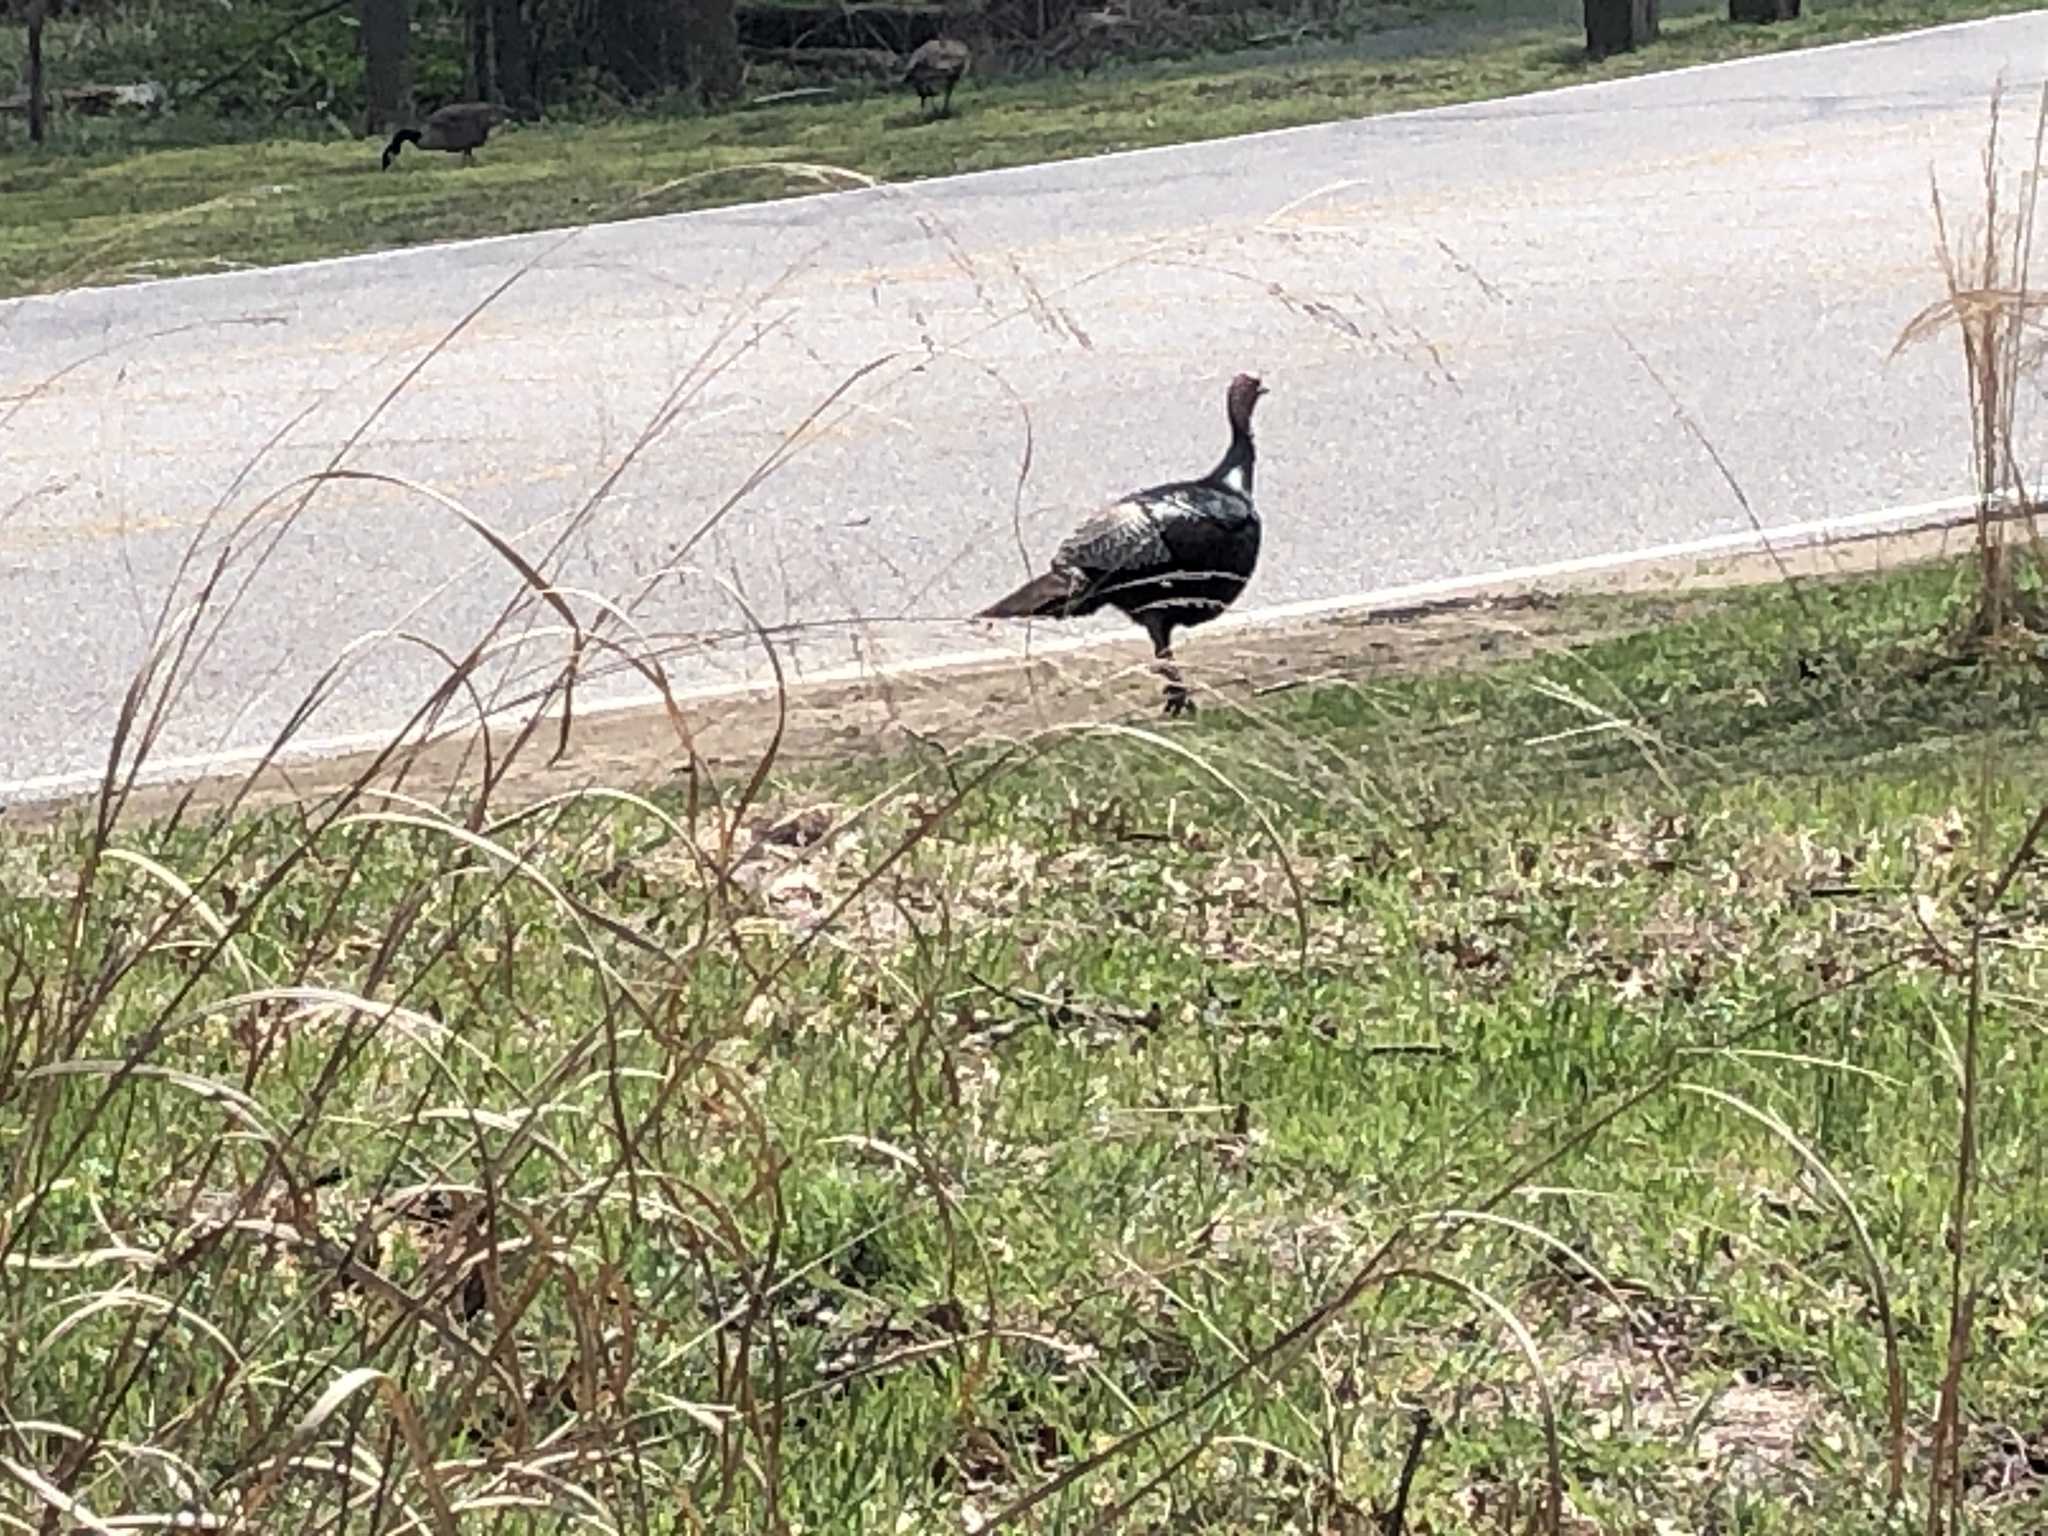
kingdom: Animalia
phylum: Chordata
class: Aves
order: Galliformes
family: Phasianidae
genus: Meleagris
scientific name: Meleagris gallopavo
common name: Wild turkey
